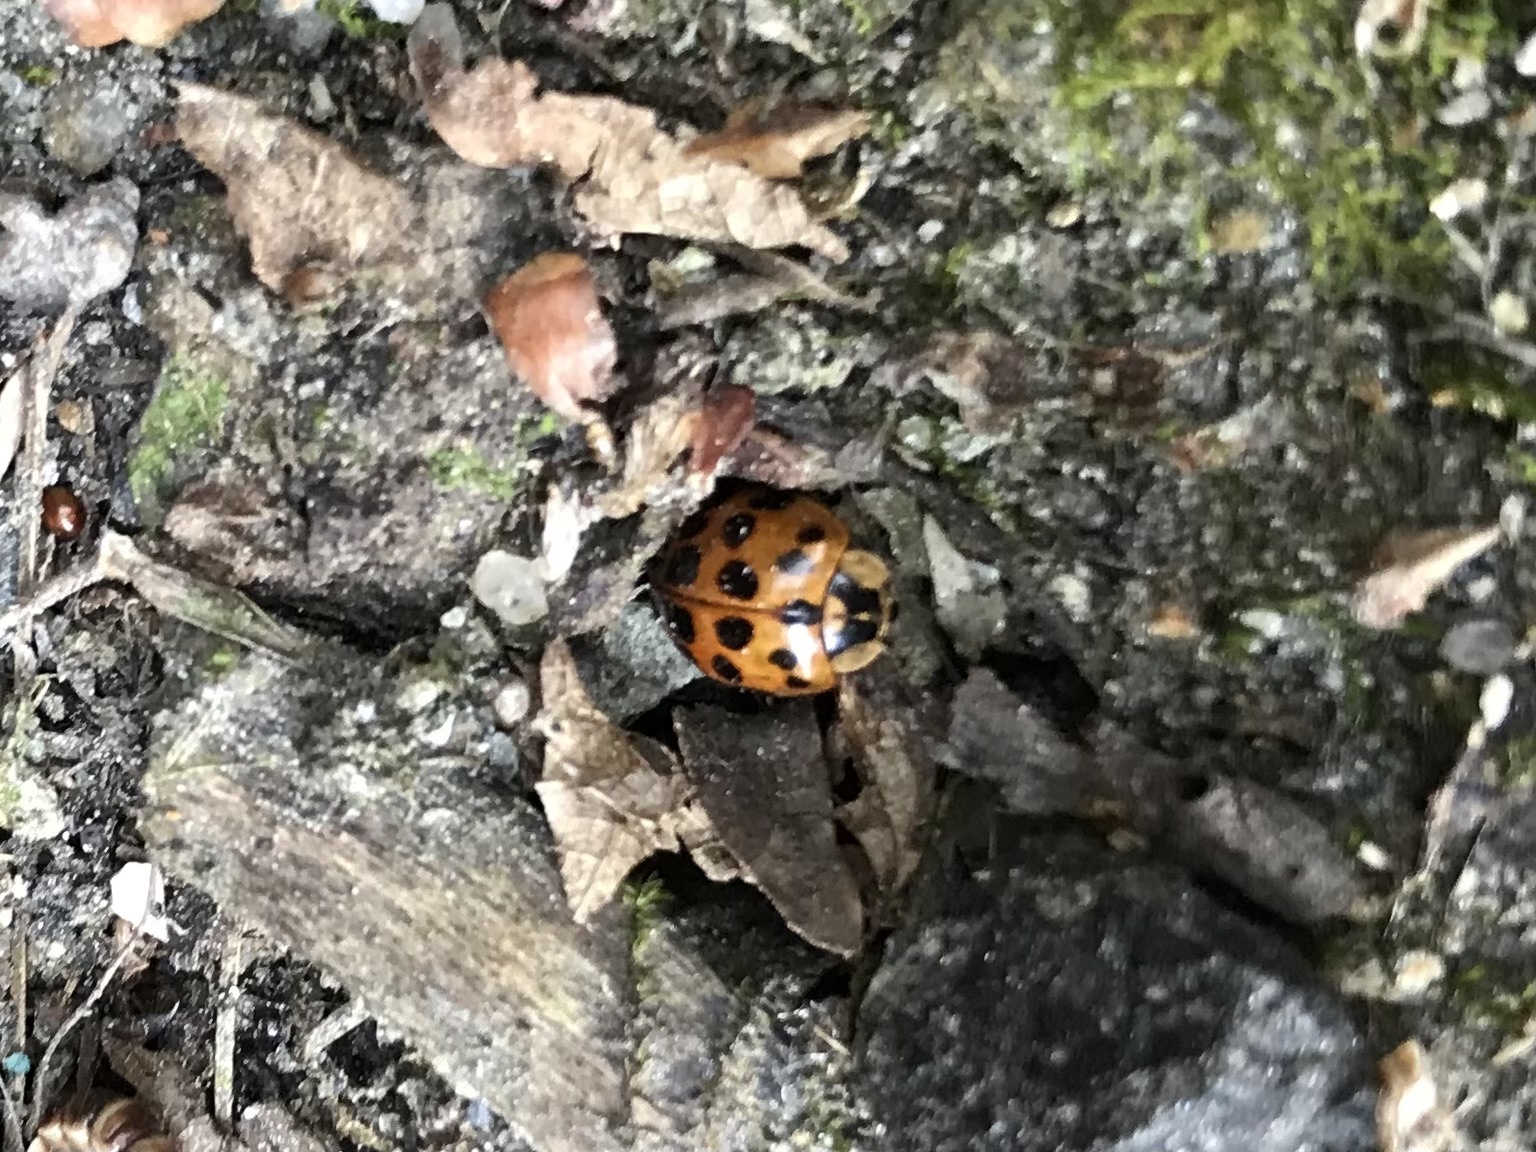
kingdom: Animalia
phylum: Arthropoda
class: Insecta
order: Coleoptera
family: Coccinellidae
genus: Harmonia
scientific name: Harmonia axyridis
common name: Harlequin ladybird
